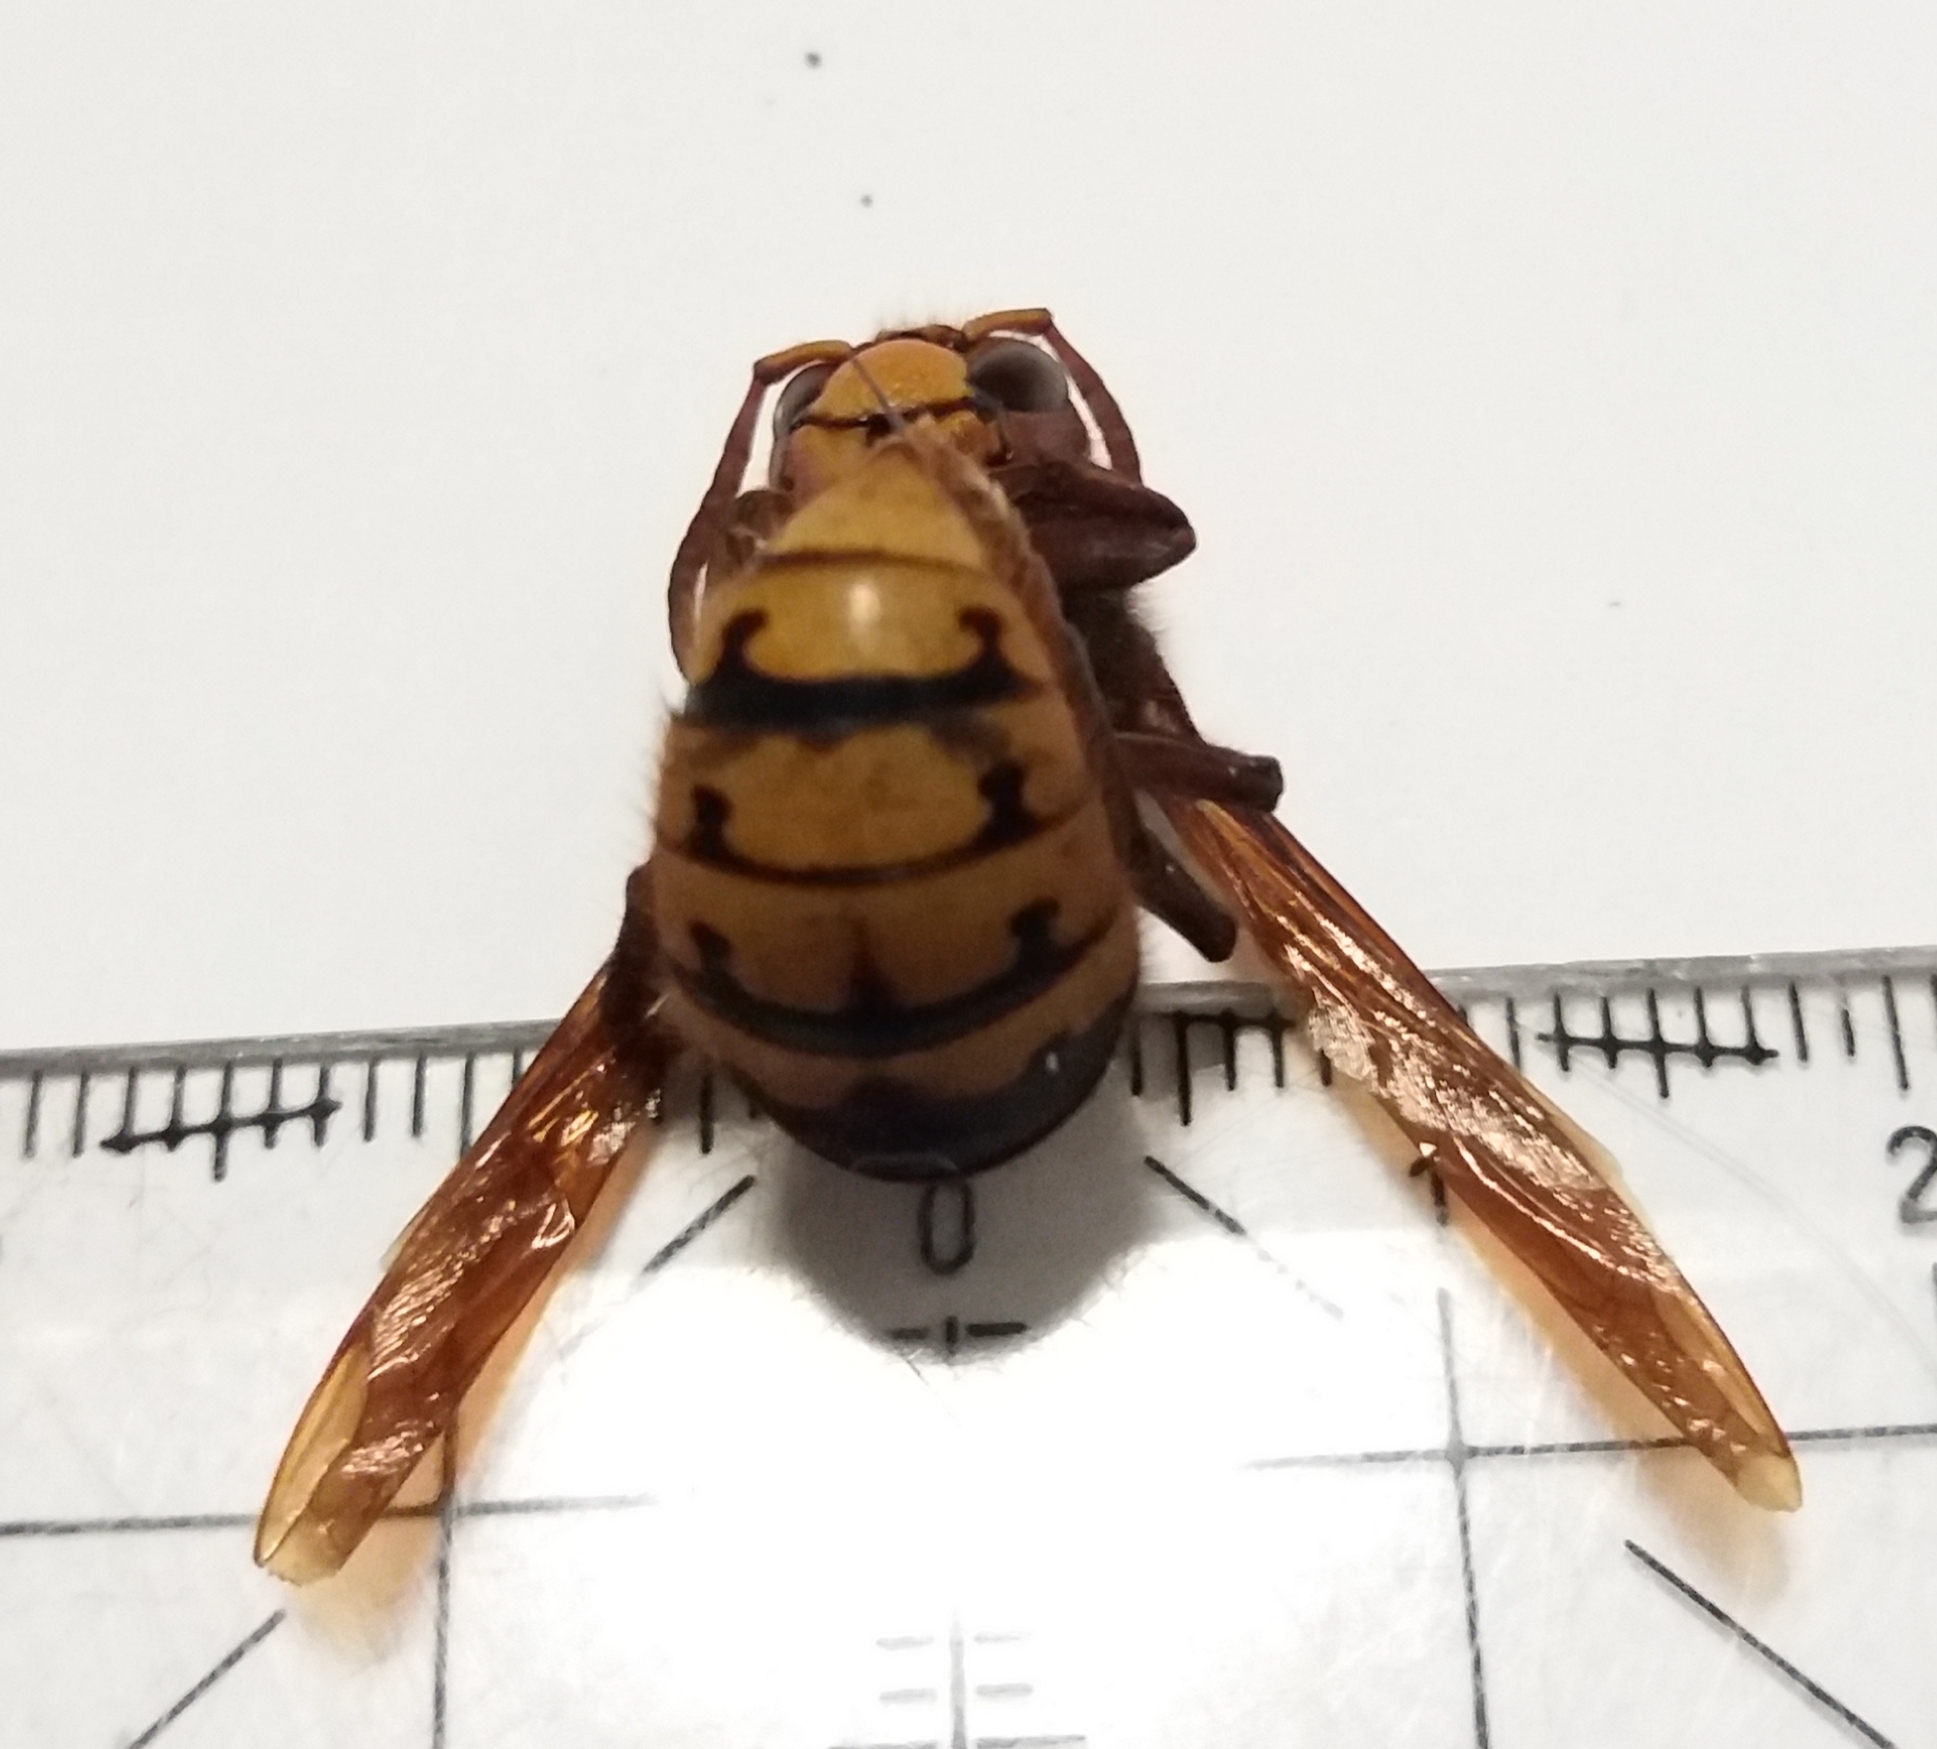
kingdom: Animalia
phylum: Arthropoda
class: Insecta
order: Hymenoptera
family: Vespidae
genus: Vespa
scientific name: Vespa crabro
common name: Hornet
